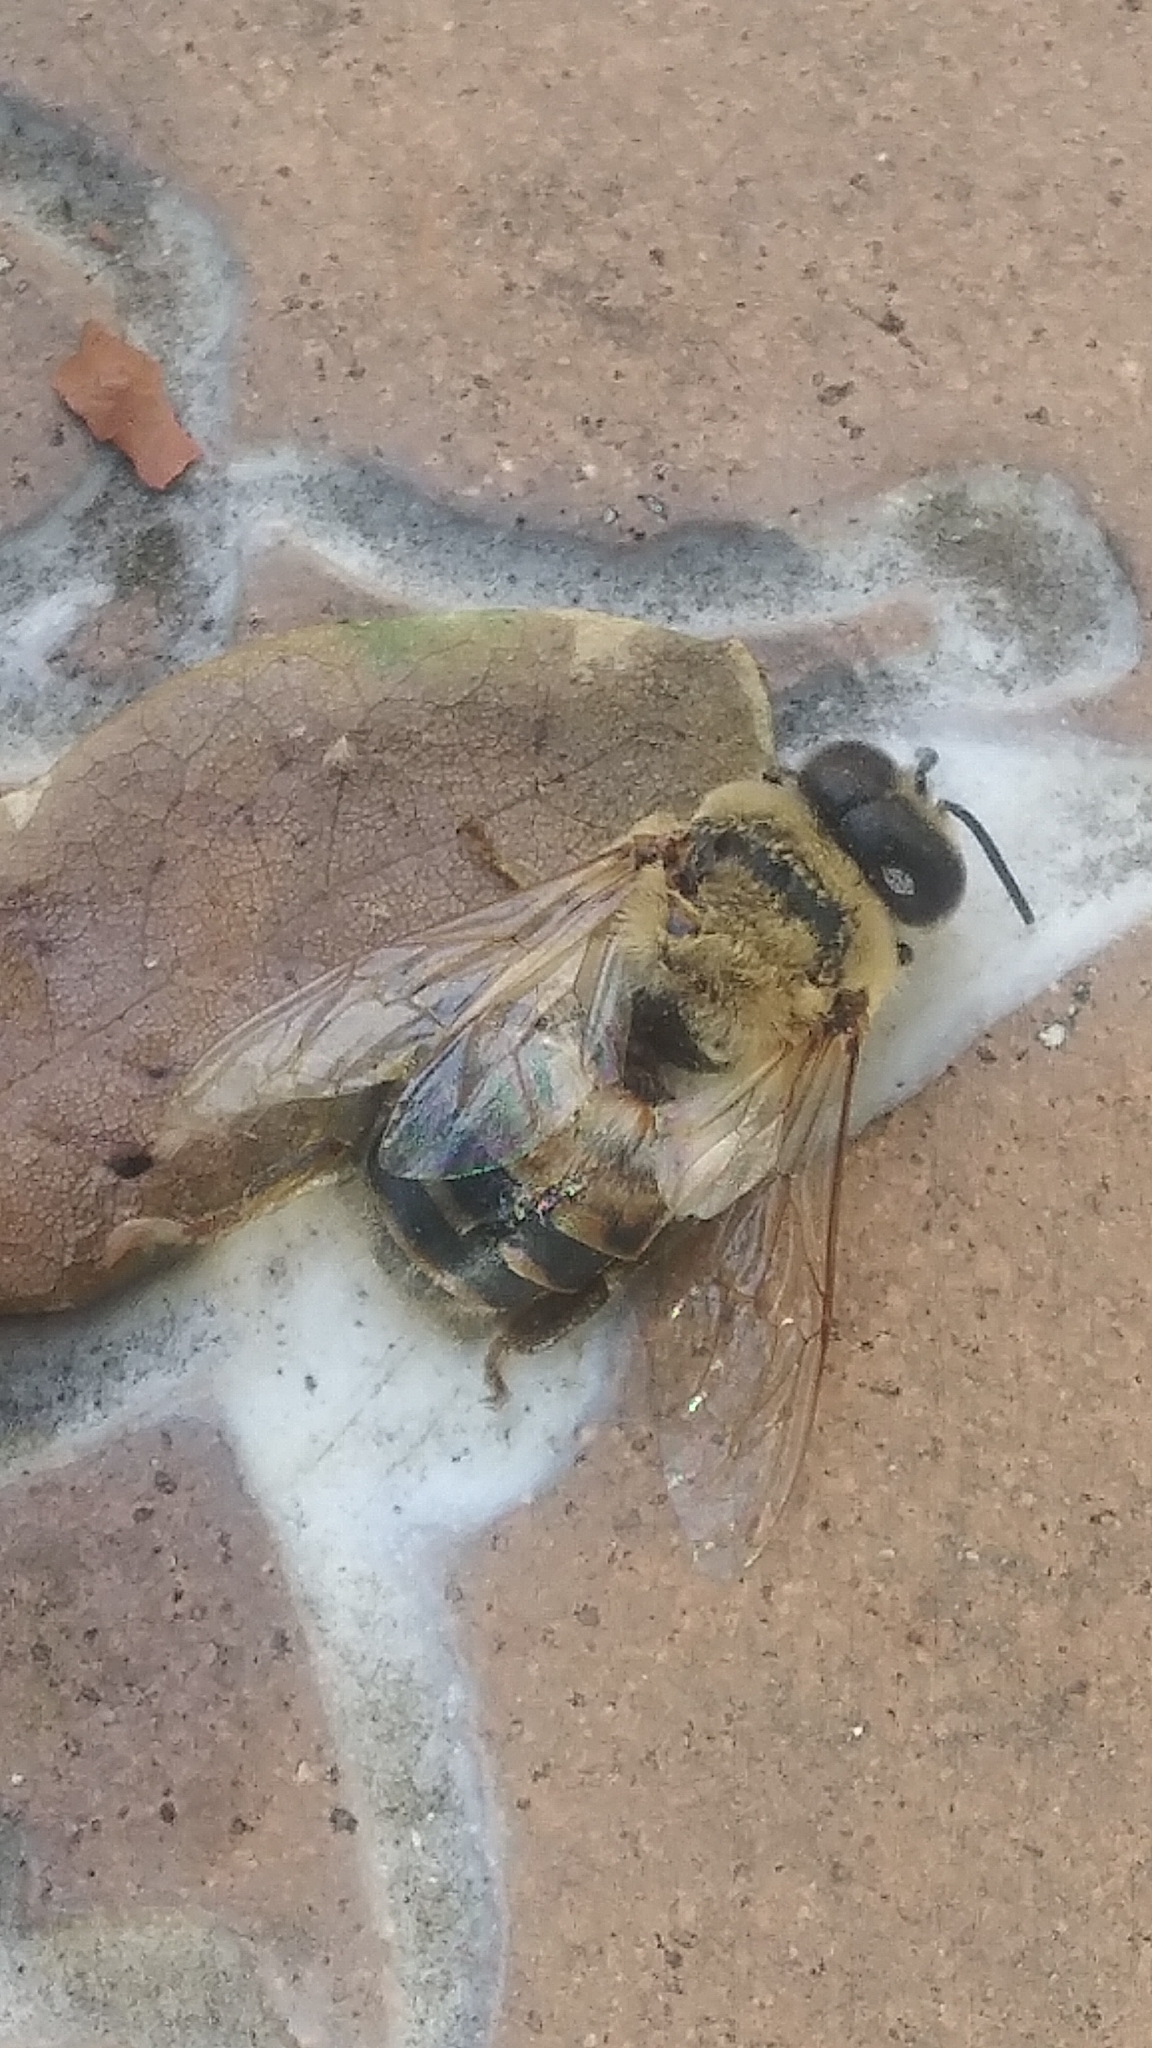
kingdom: Animalia
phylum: Arthropoda
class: Insecta
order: Hymenoptera
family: Apidae
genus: Apis
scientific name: Apis mellifera
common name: Honey bee
